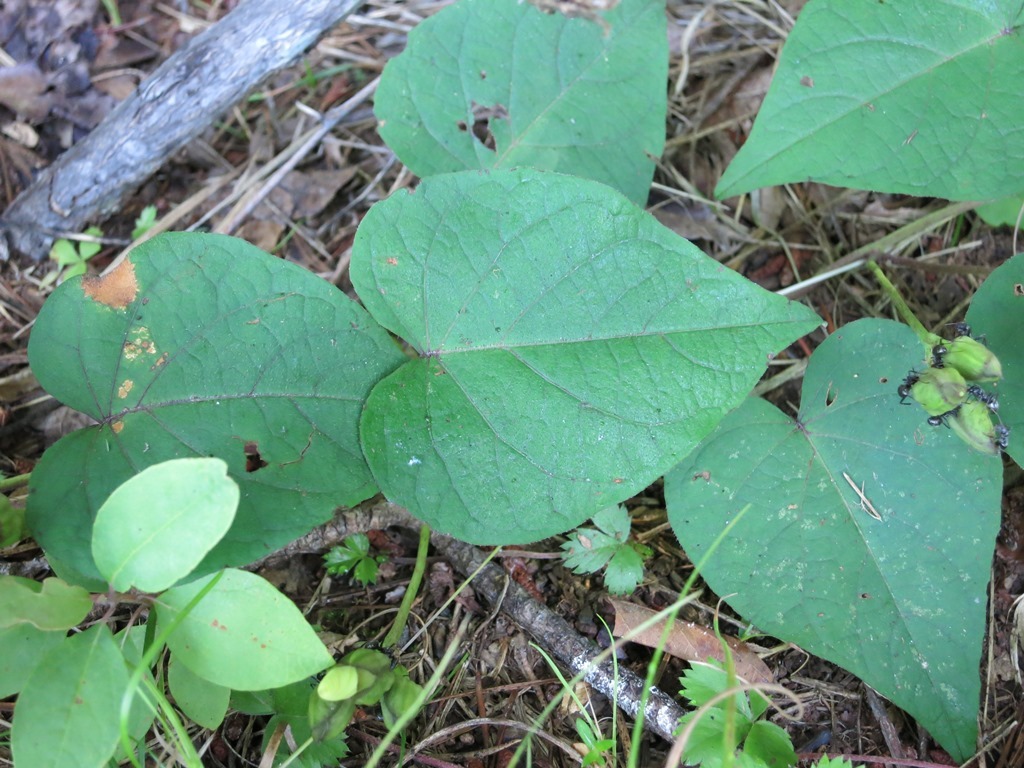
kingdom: Plantae
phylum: Tracheophyta
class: Magnoliopsida
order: Solanales
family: Convolvulaceae
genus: Ipomoea
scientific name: Ipomoea pandurata
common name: Man-of-the-earth
